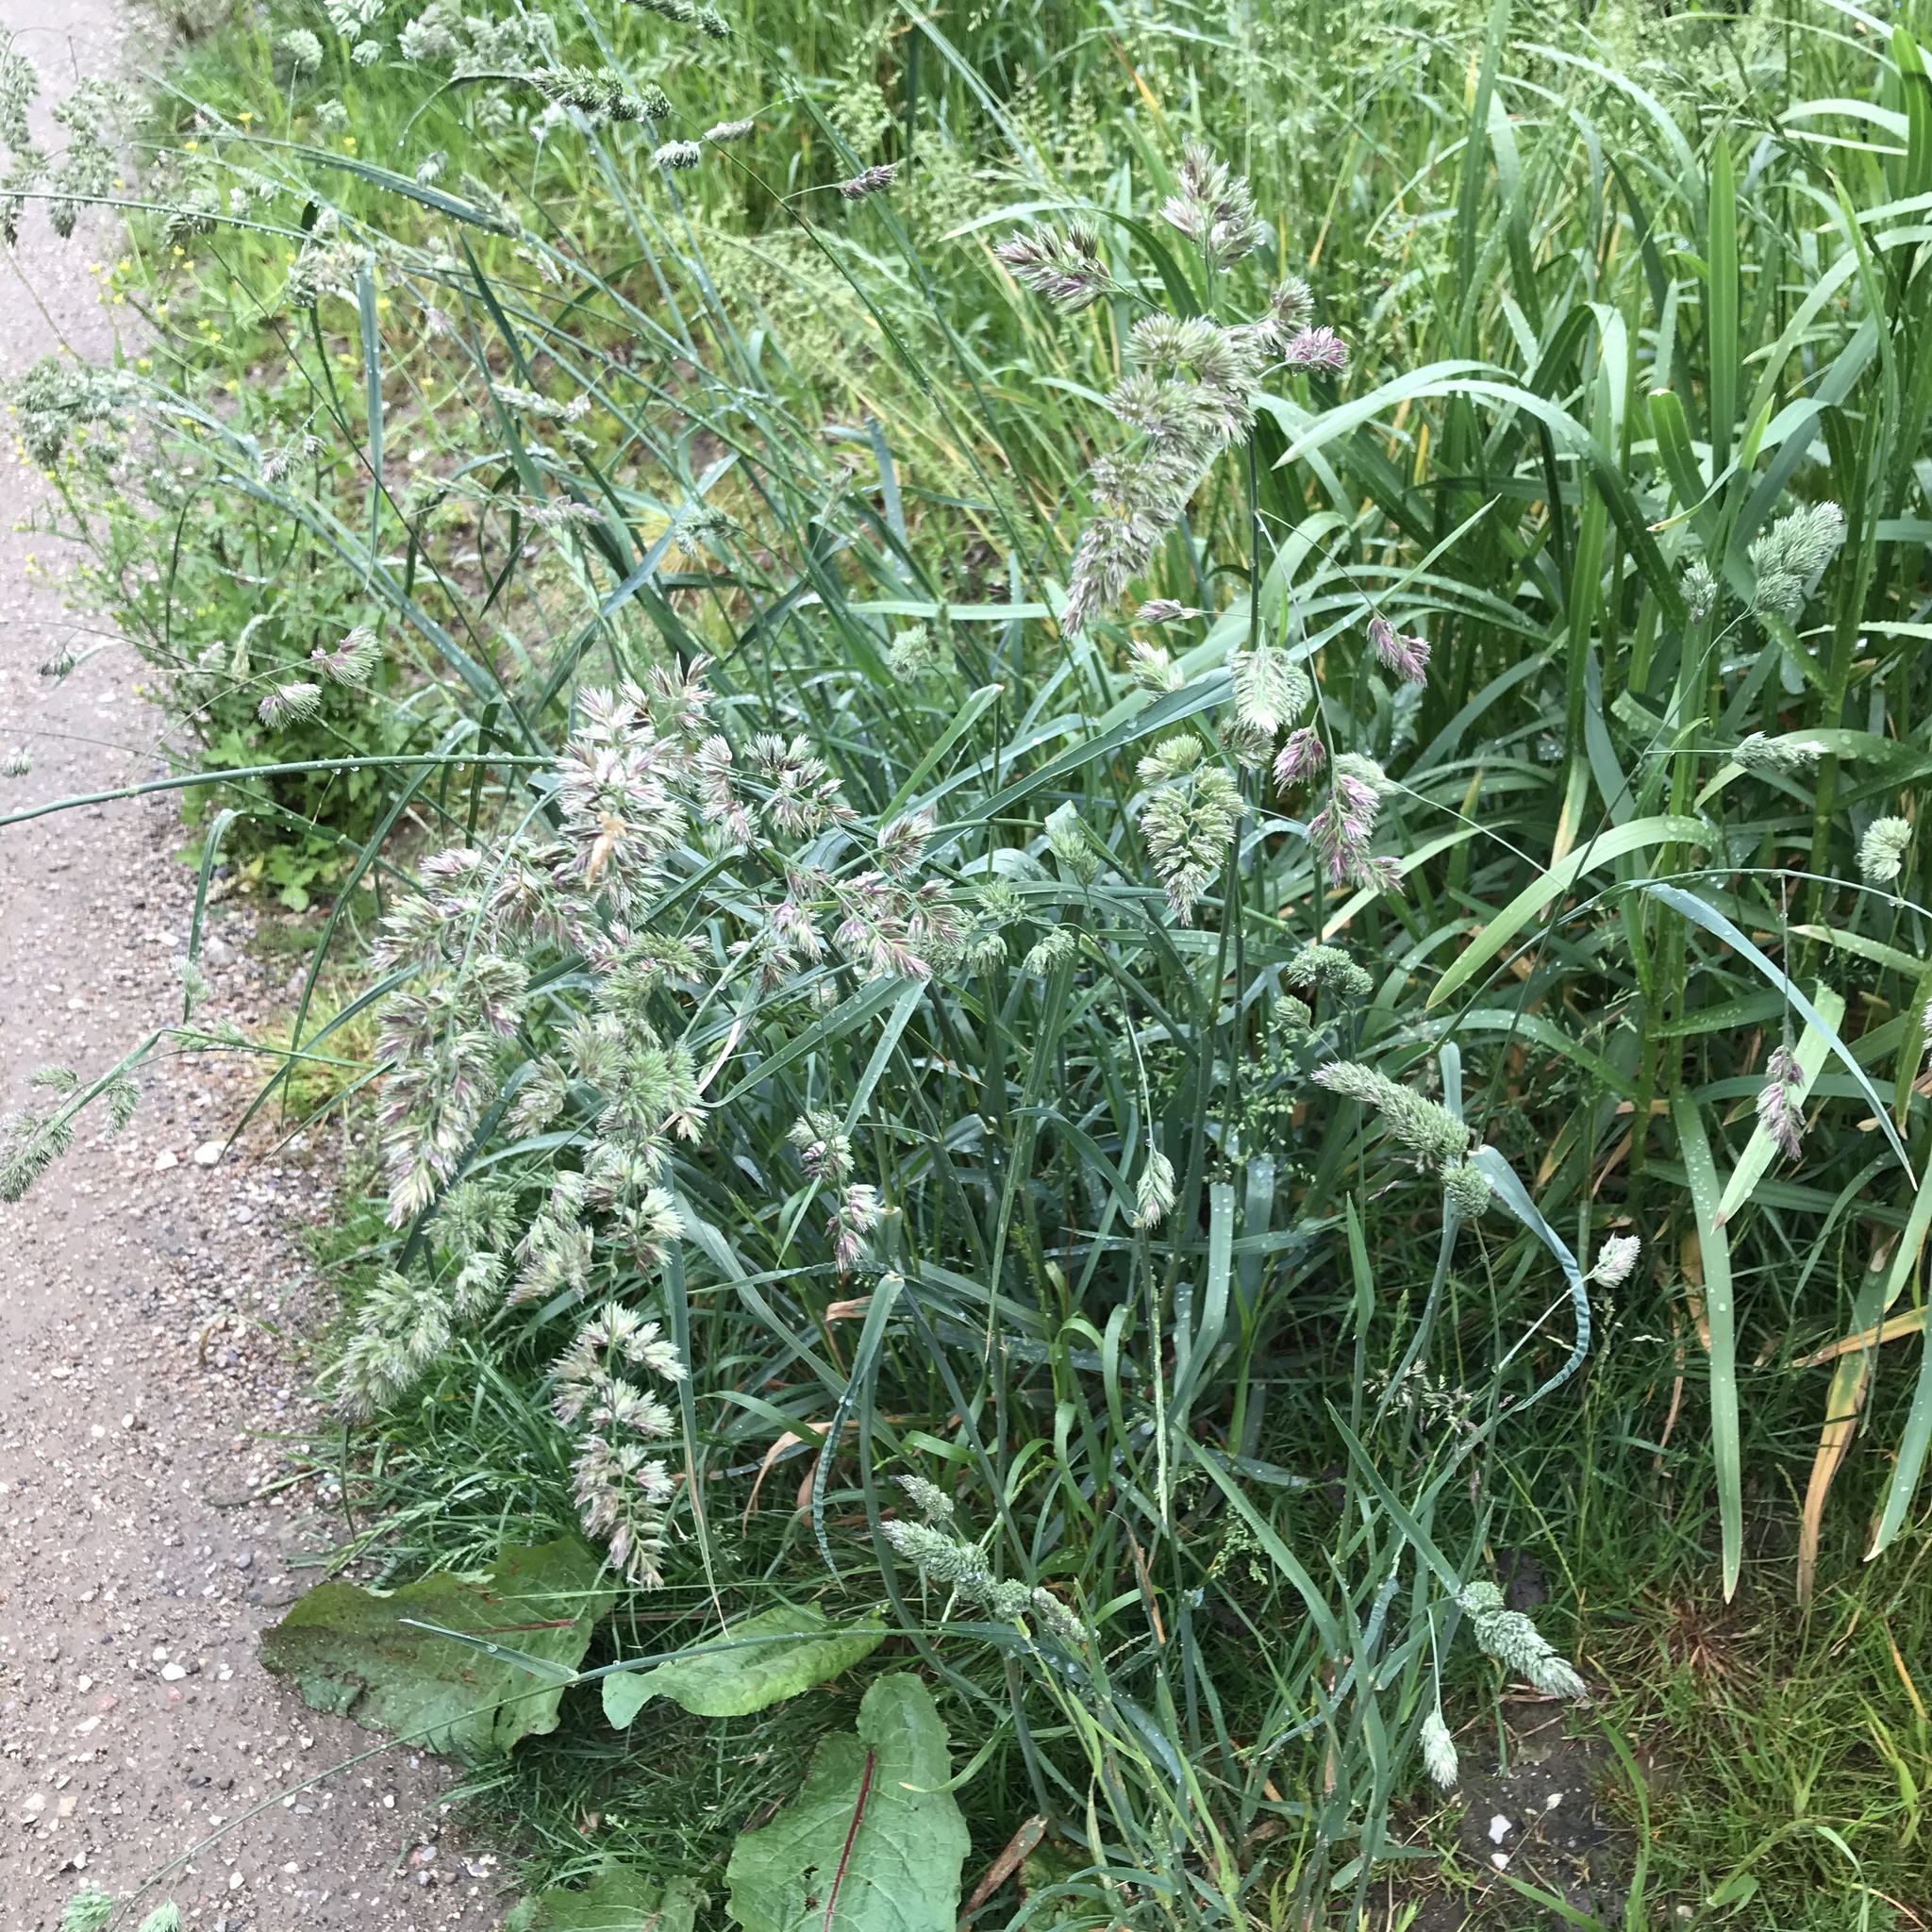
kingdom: Plantae
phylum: Tracheophyta
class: Liliopsida
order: Poales
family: Poaceae
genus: Dactylis
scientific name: Dactylis glomerata
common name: Orchardgrass
